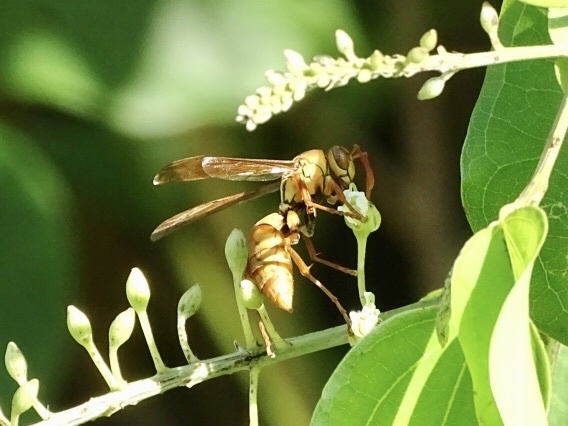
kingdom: Animalia
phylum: Arthropoda
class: Insecta
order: Hymenoptera
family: Eumenidae
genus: Polistes
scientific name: Polistes japonicus
